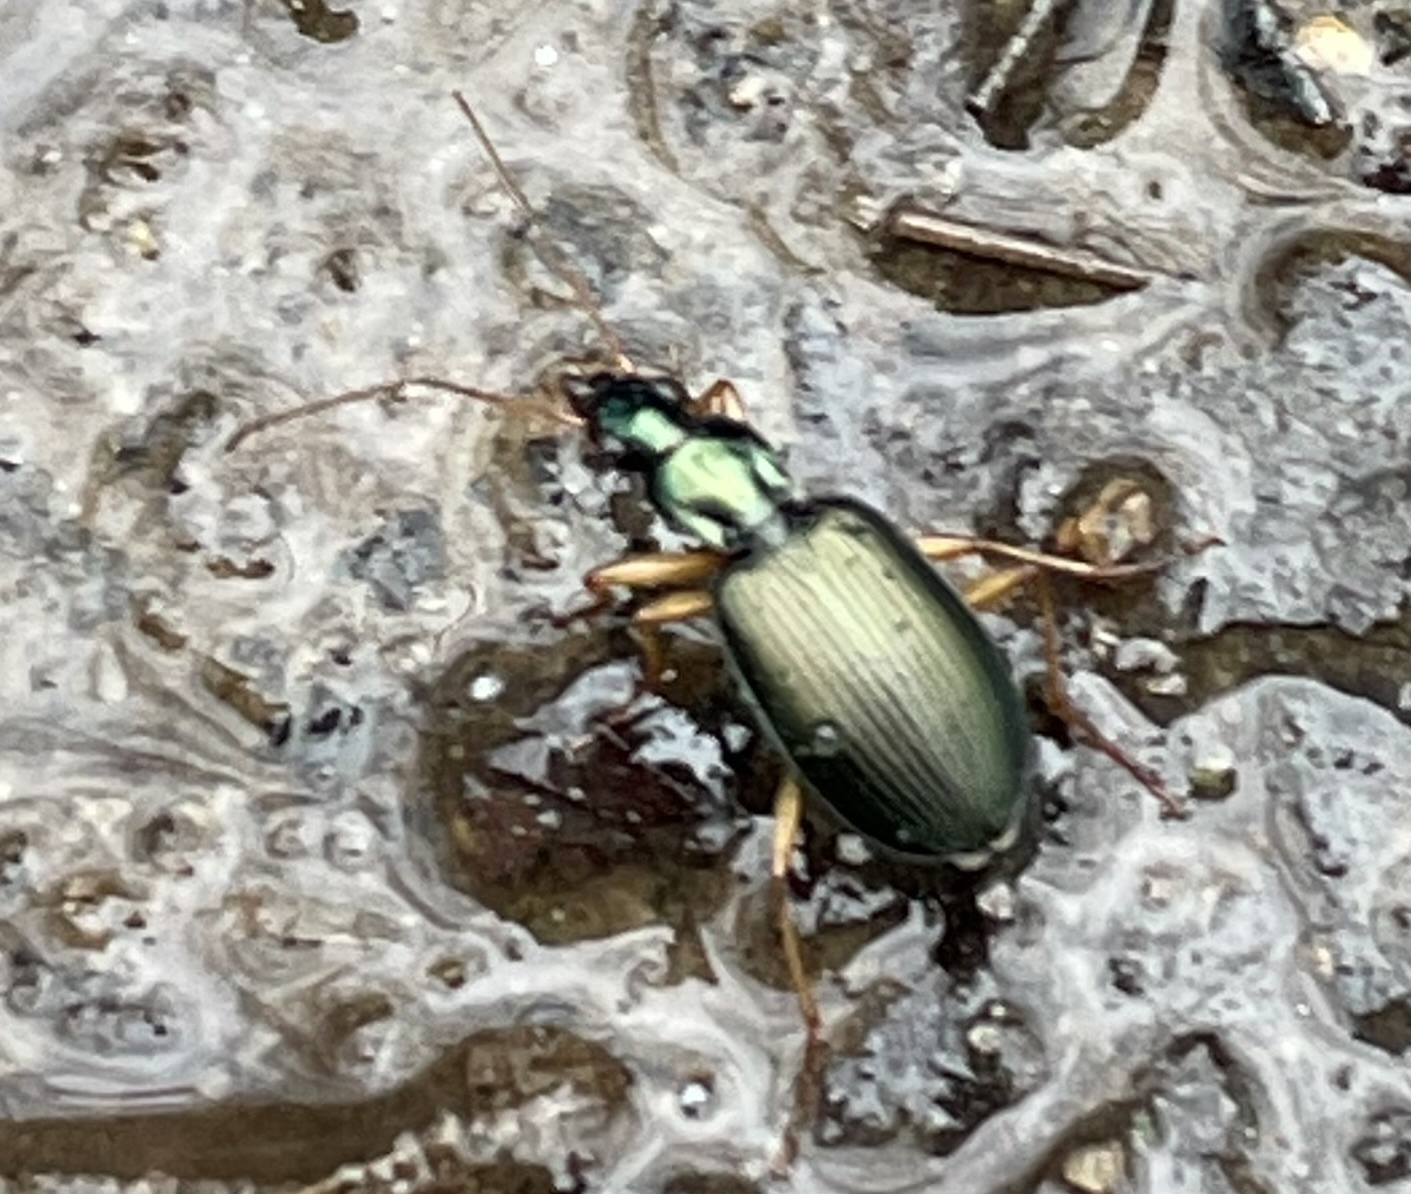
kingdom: Animalia
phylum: Arthropoda
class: Insecta
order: Coleoptera
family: Carabidae
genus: Agonum
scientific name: Agonum extensicolle
